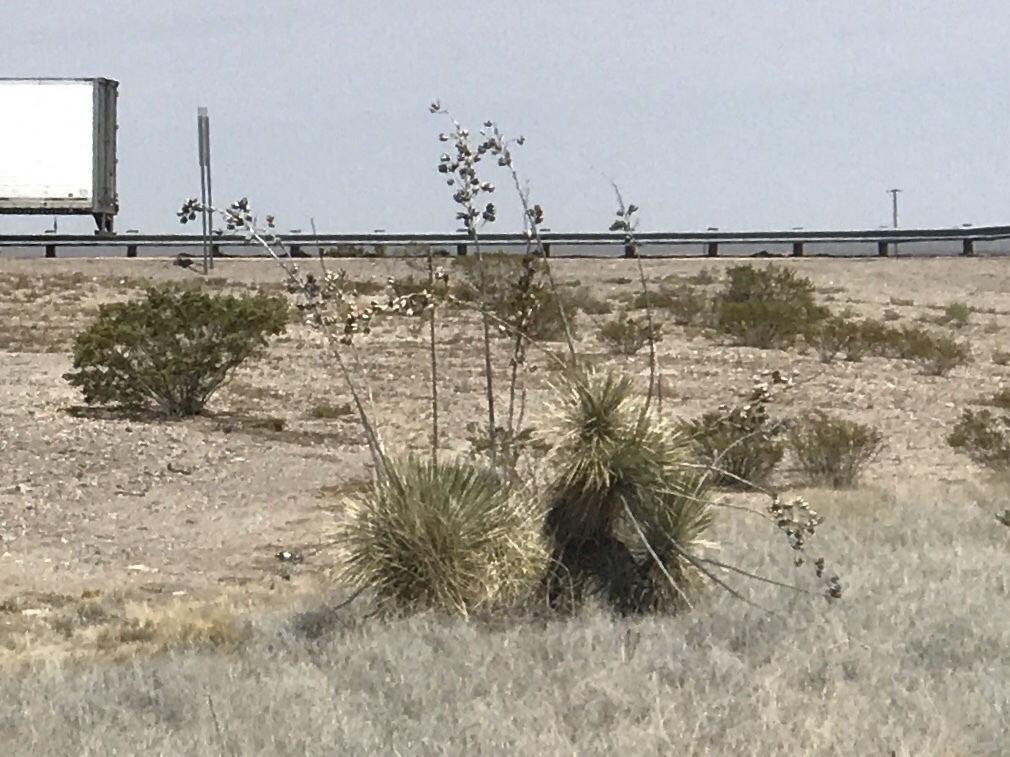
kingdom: Plantae
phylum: Tracheophyta
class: Liliopsida
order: Asparagales
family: Asparagaceae
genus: Yucca
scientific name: Yucca elata
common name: Palmella
